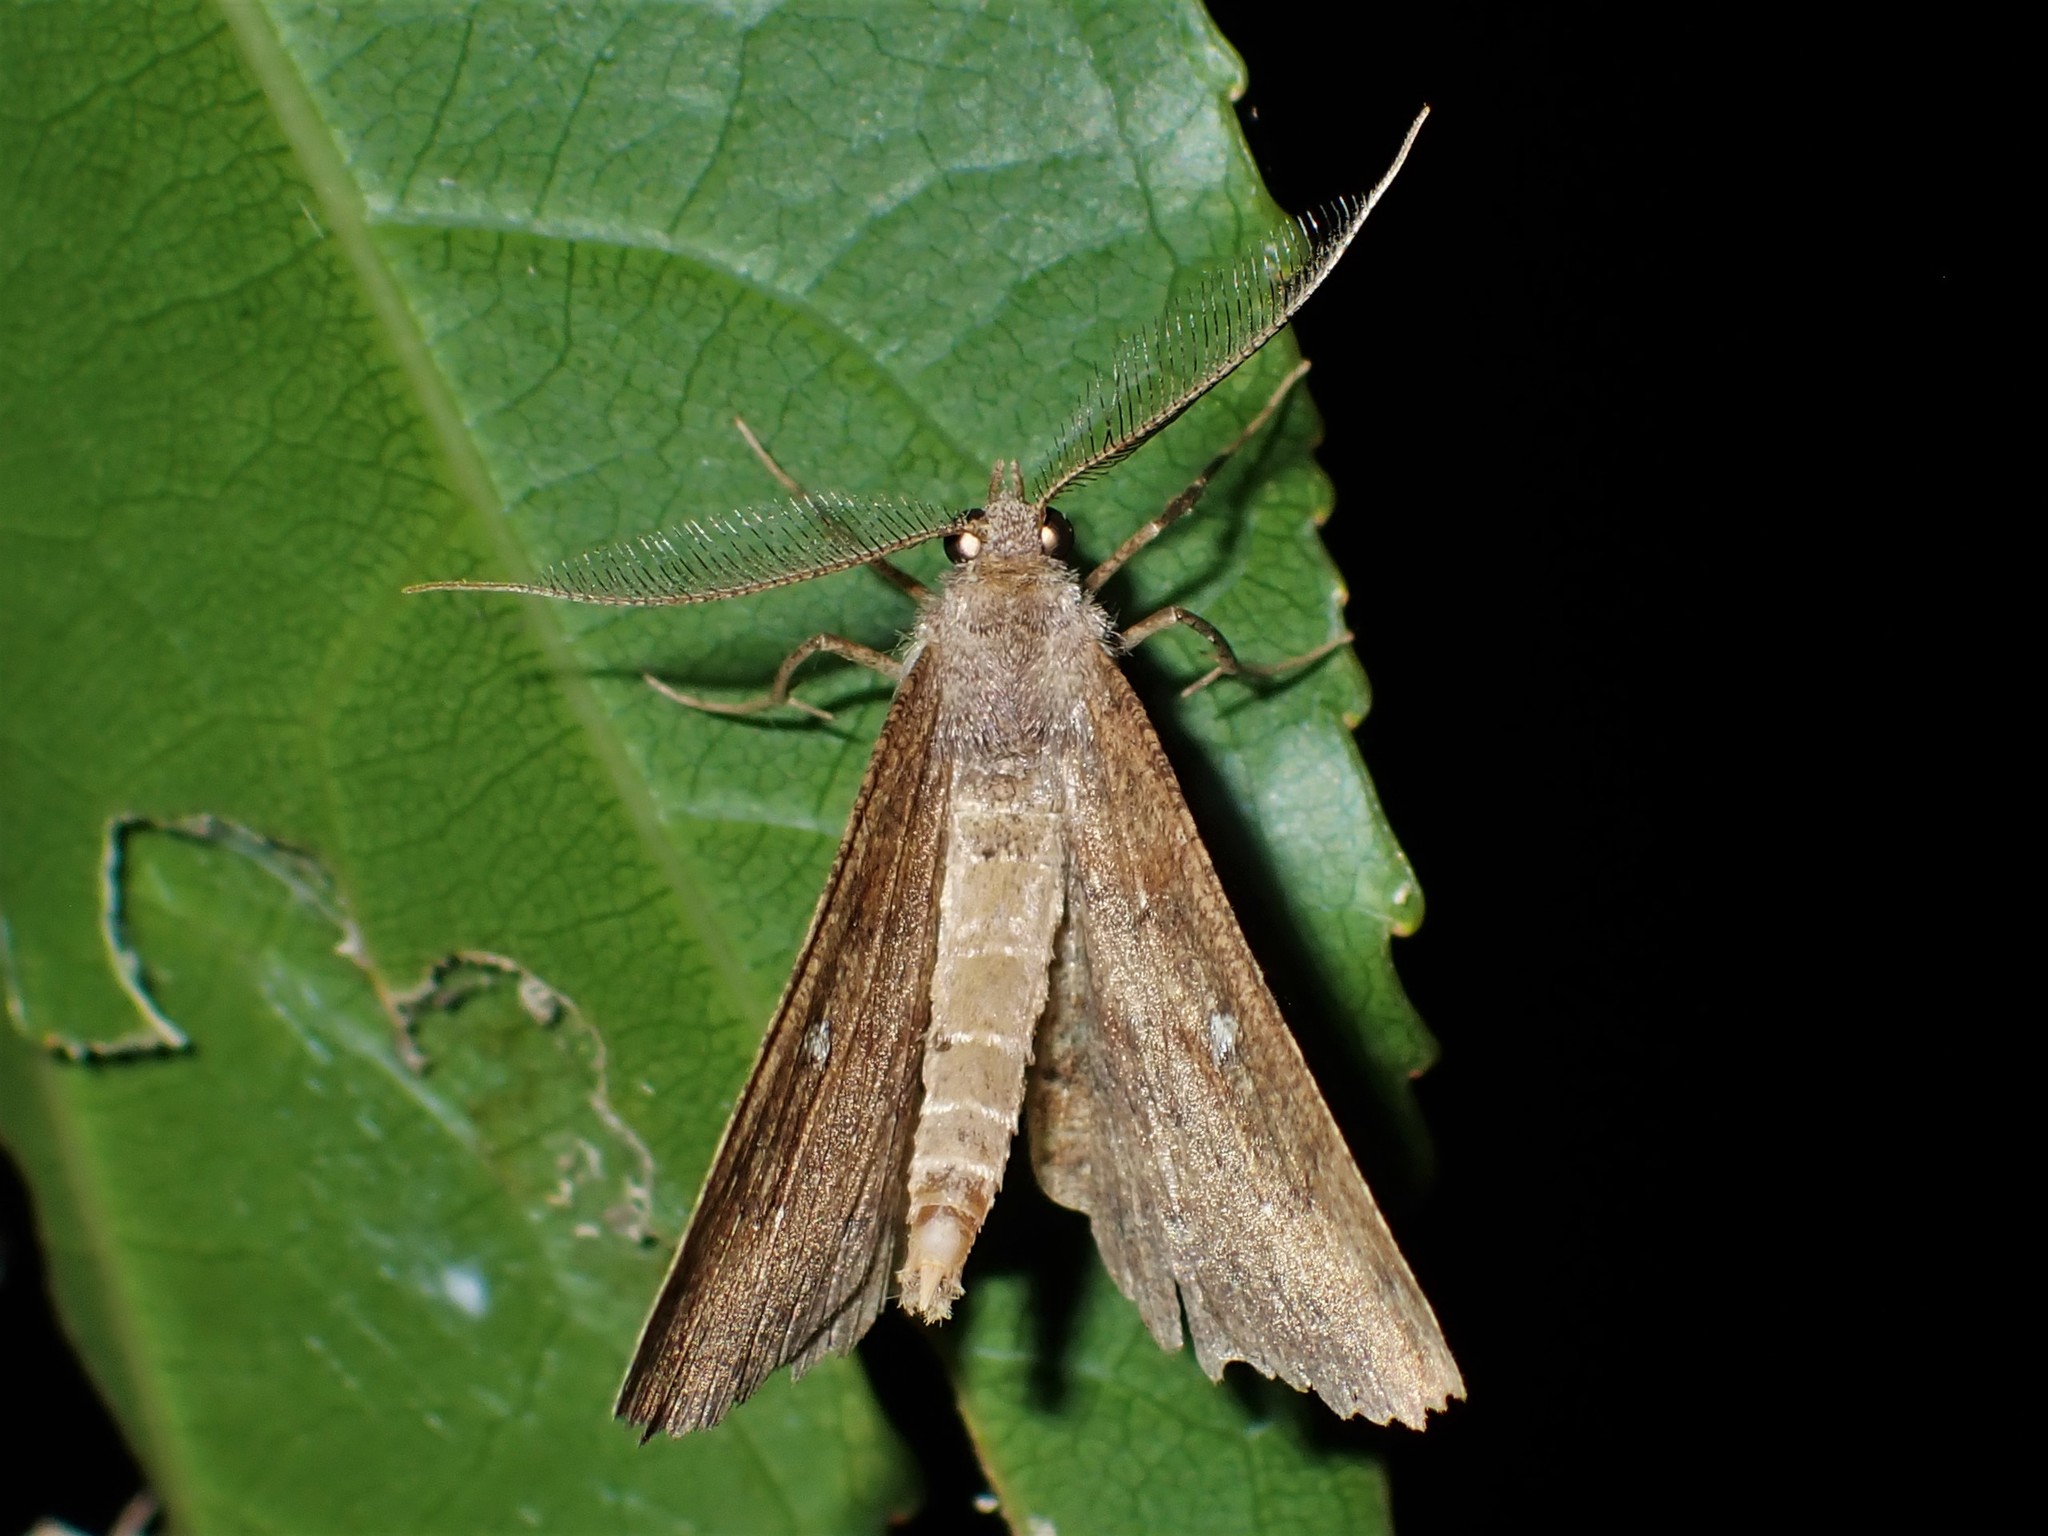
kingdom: Animalia
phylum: Arthropoda
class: Insecta
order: Lepidoptera
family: Geometridae
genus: Cleora
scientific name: Cleora scriptaria
